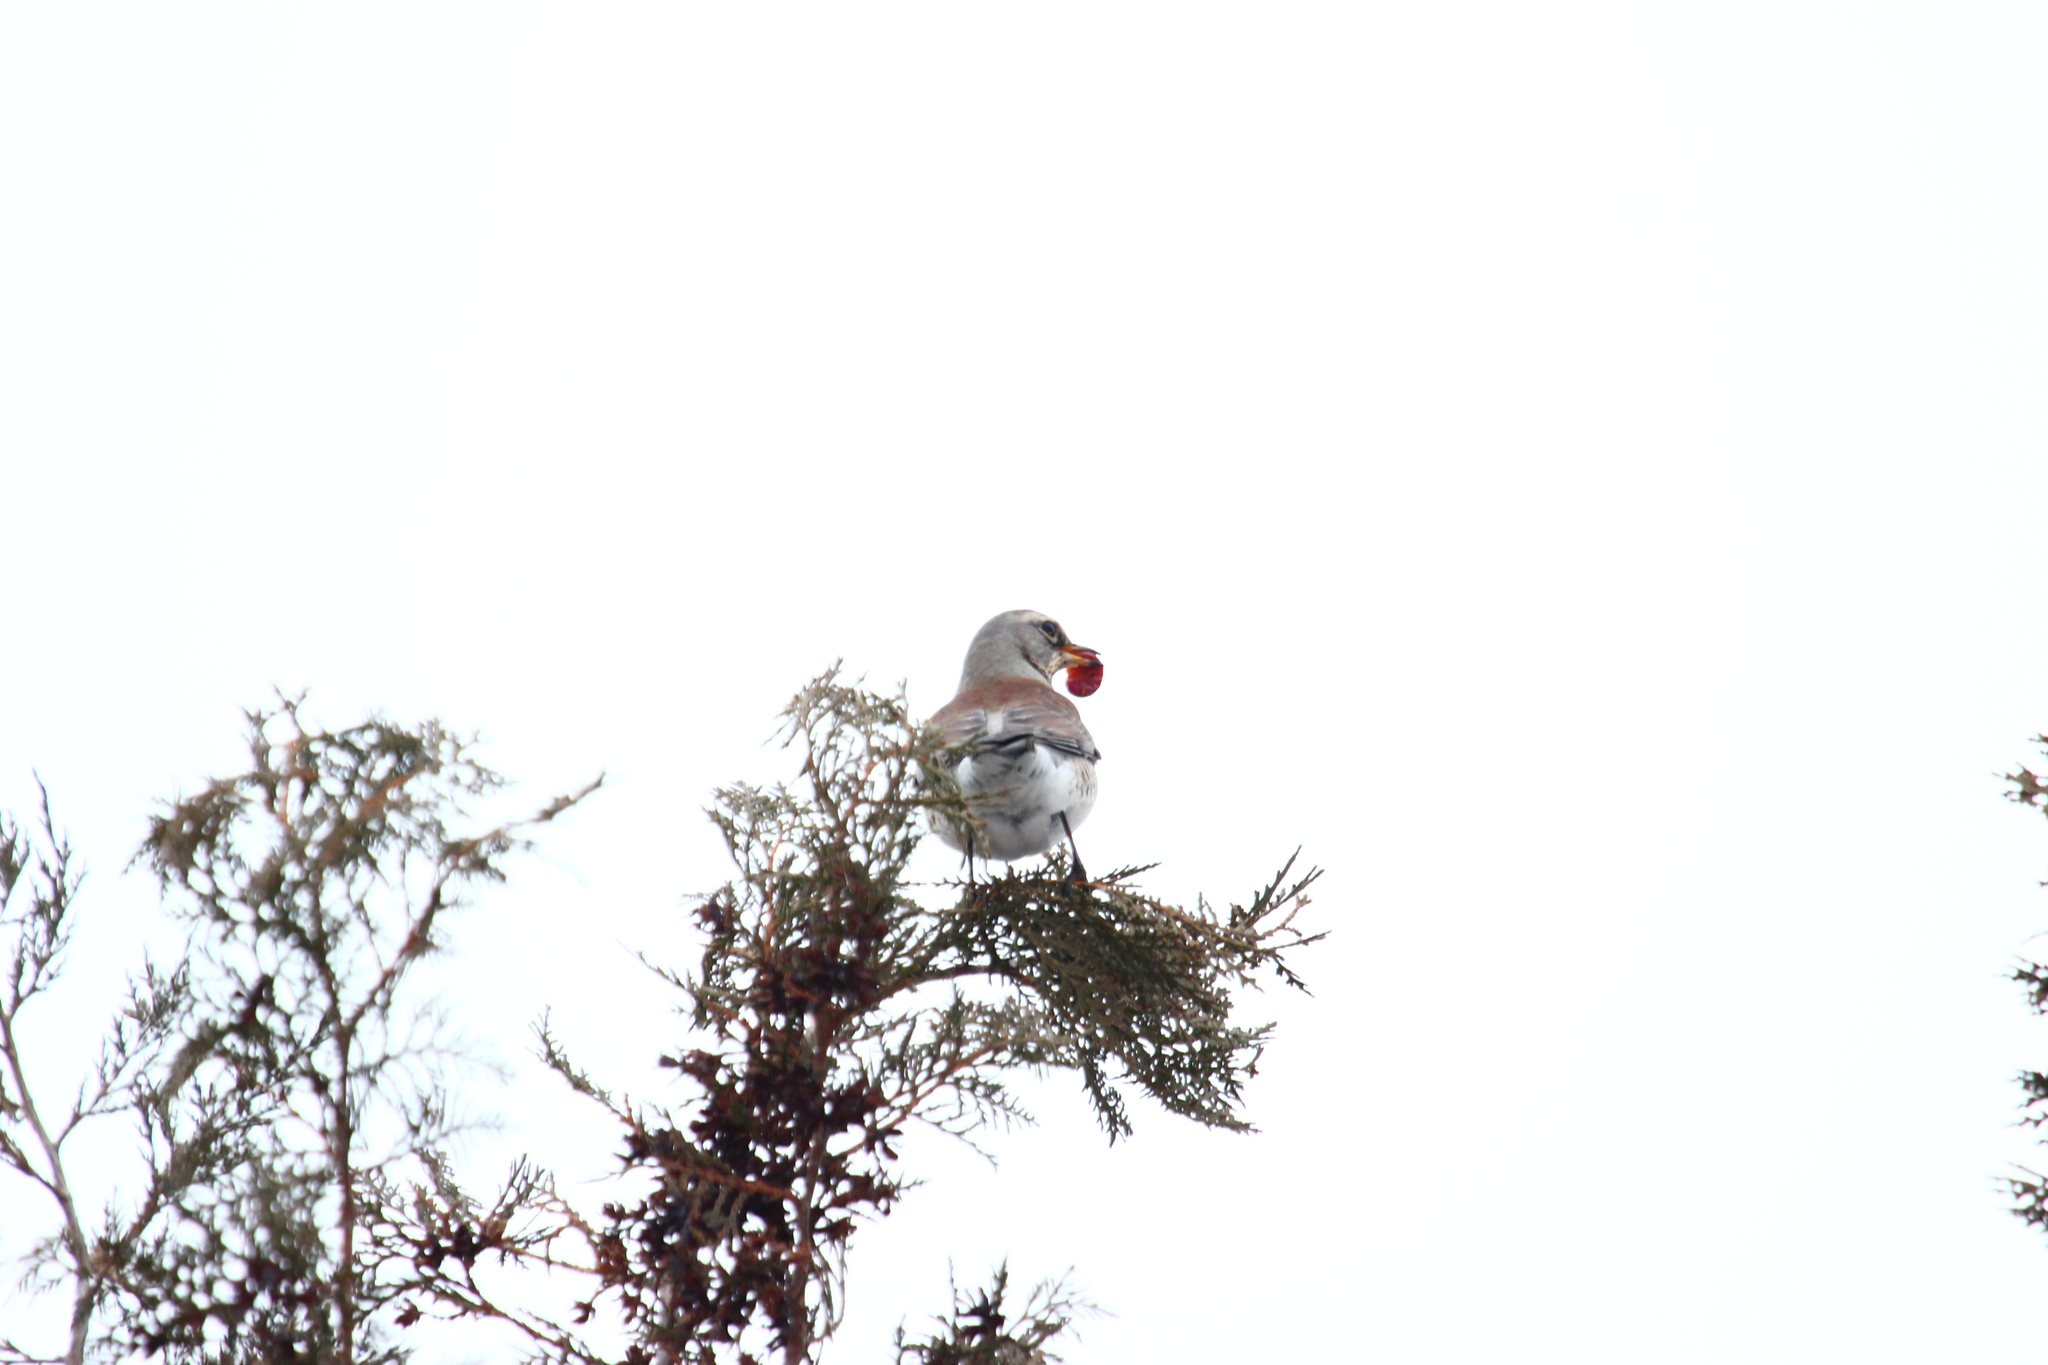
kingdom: Animalia
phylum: Chordata
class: Aves
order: Passeriformes
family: Turdidae
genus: Turdus
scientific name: Turdus pilaris
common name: Fieldfare
